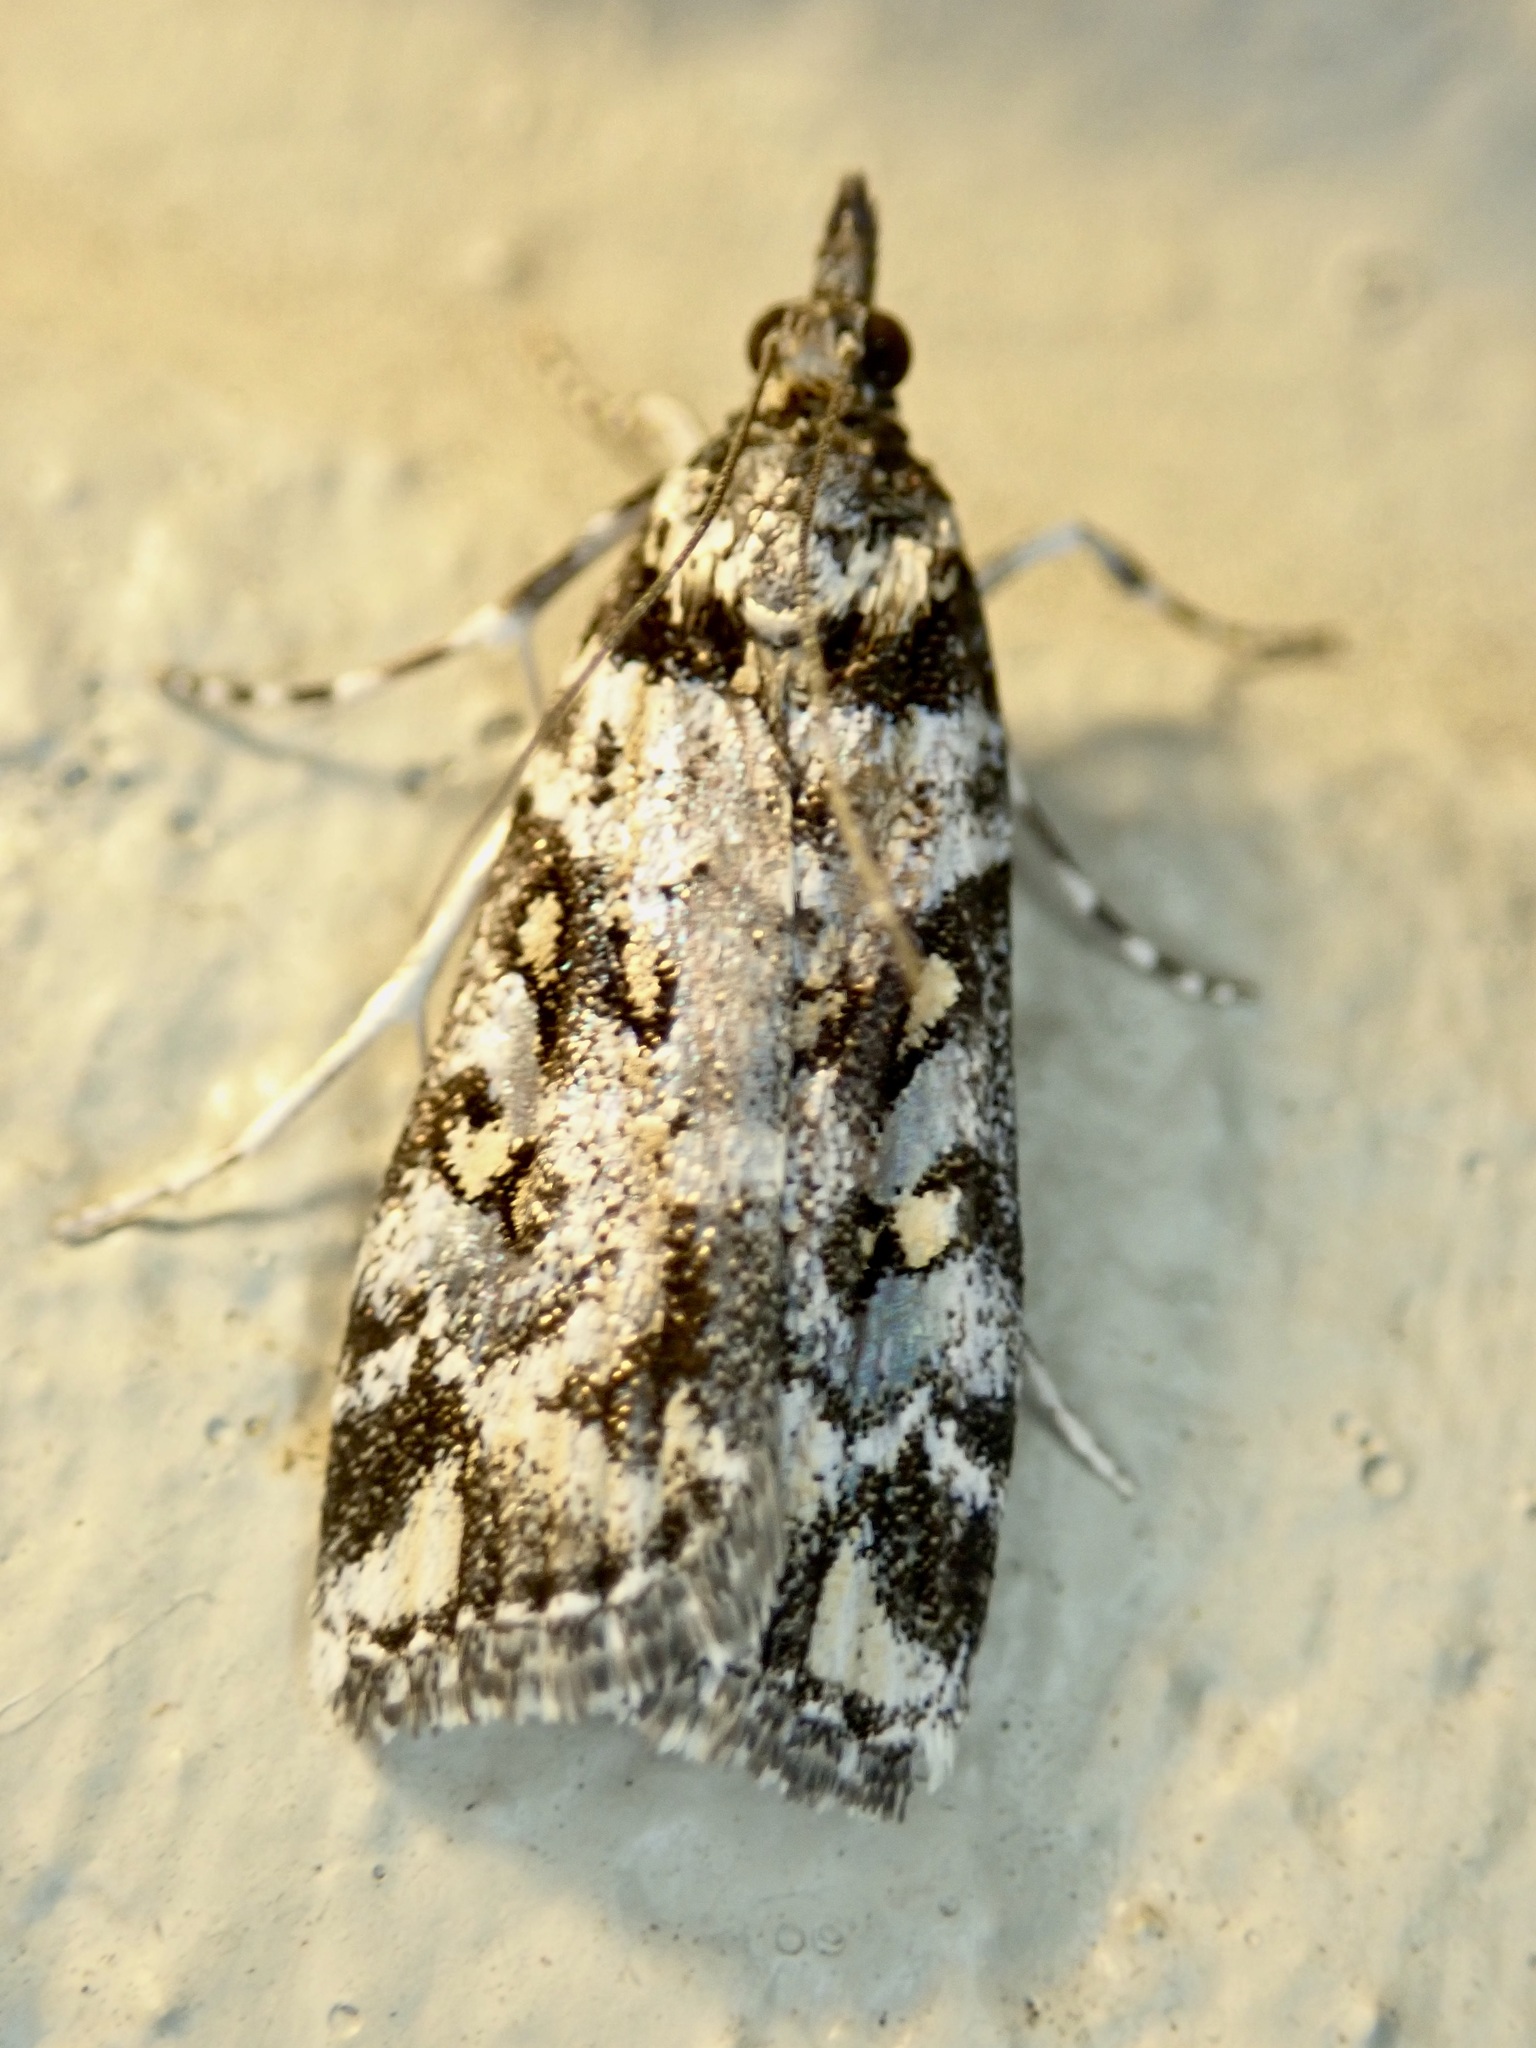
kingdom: Animalia
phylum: Arthropoda
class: Insecta
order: Lepidoptera
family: Crambidae
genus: Eudonia
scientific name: Eudonia diphtheralis
